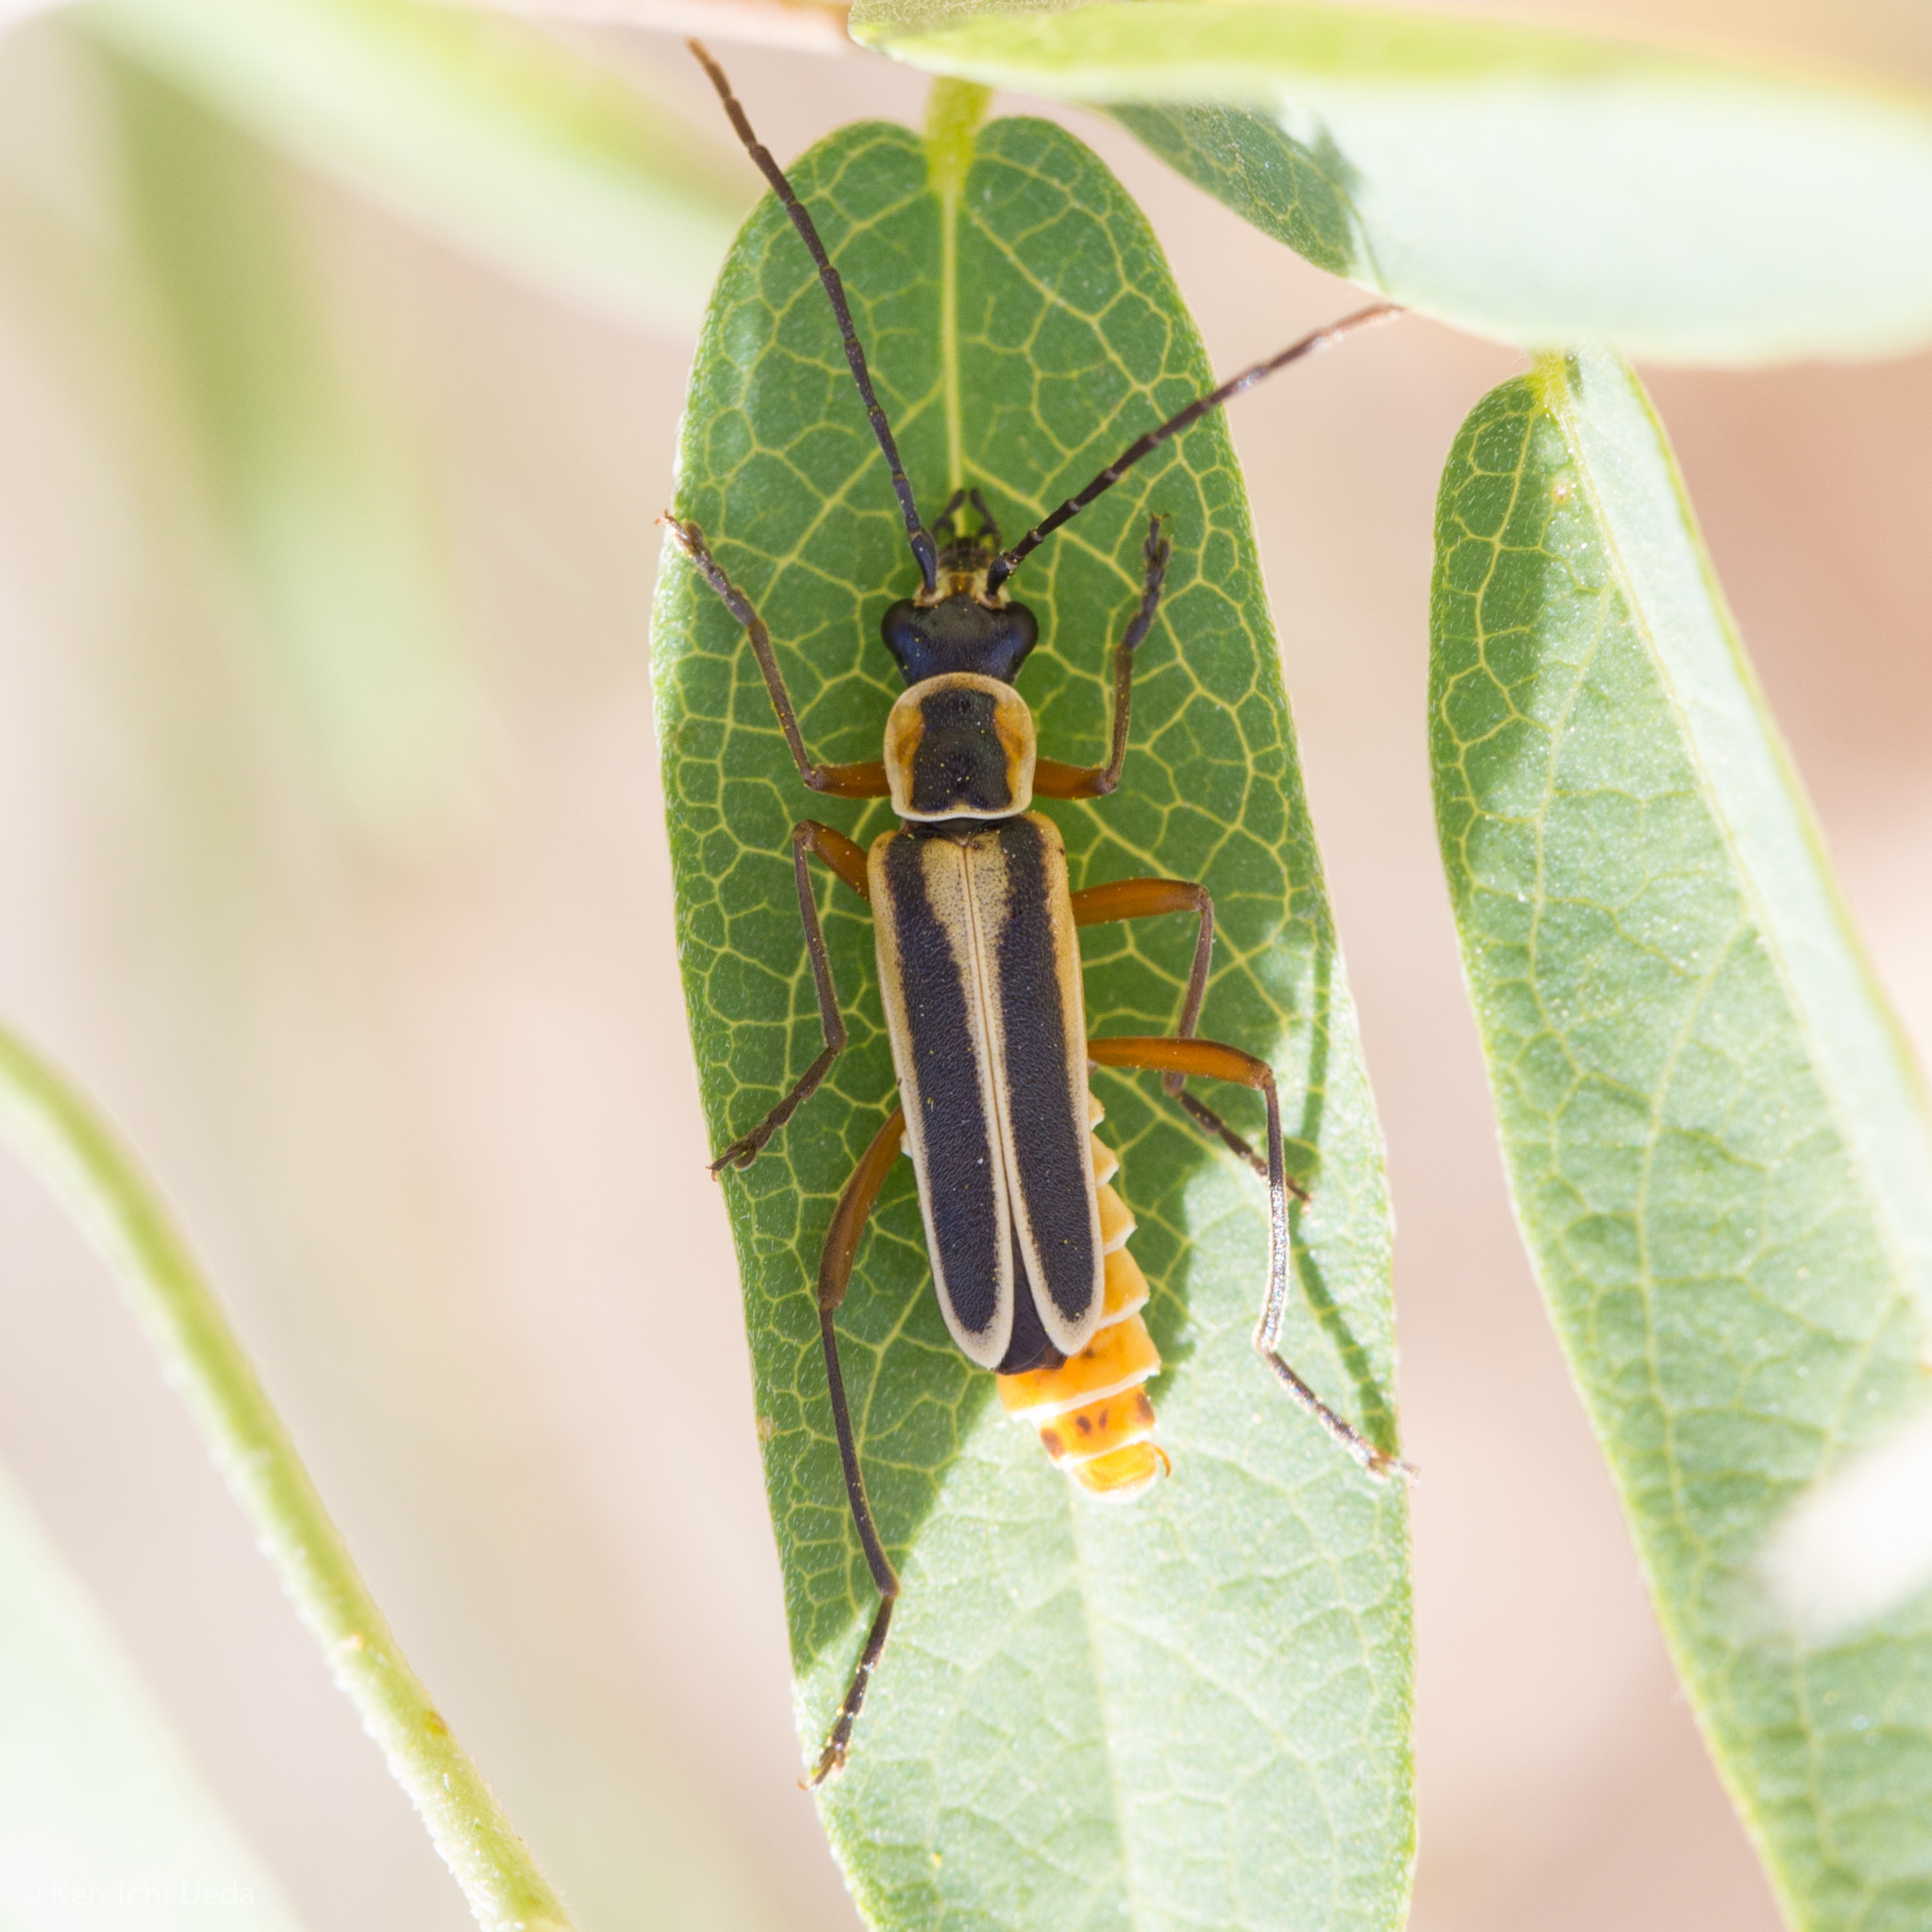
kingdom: Animalia
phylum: Arthropoda
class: Insecta
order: Coleoptera
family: Cantharidae
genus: Chauliognathus
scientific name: Chauliognathus lewisi
